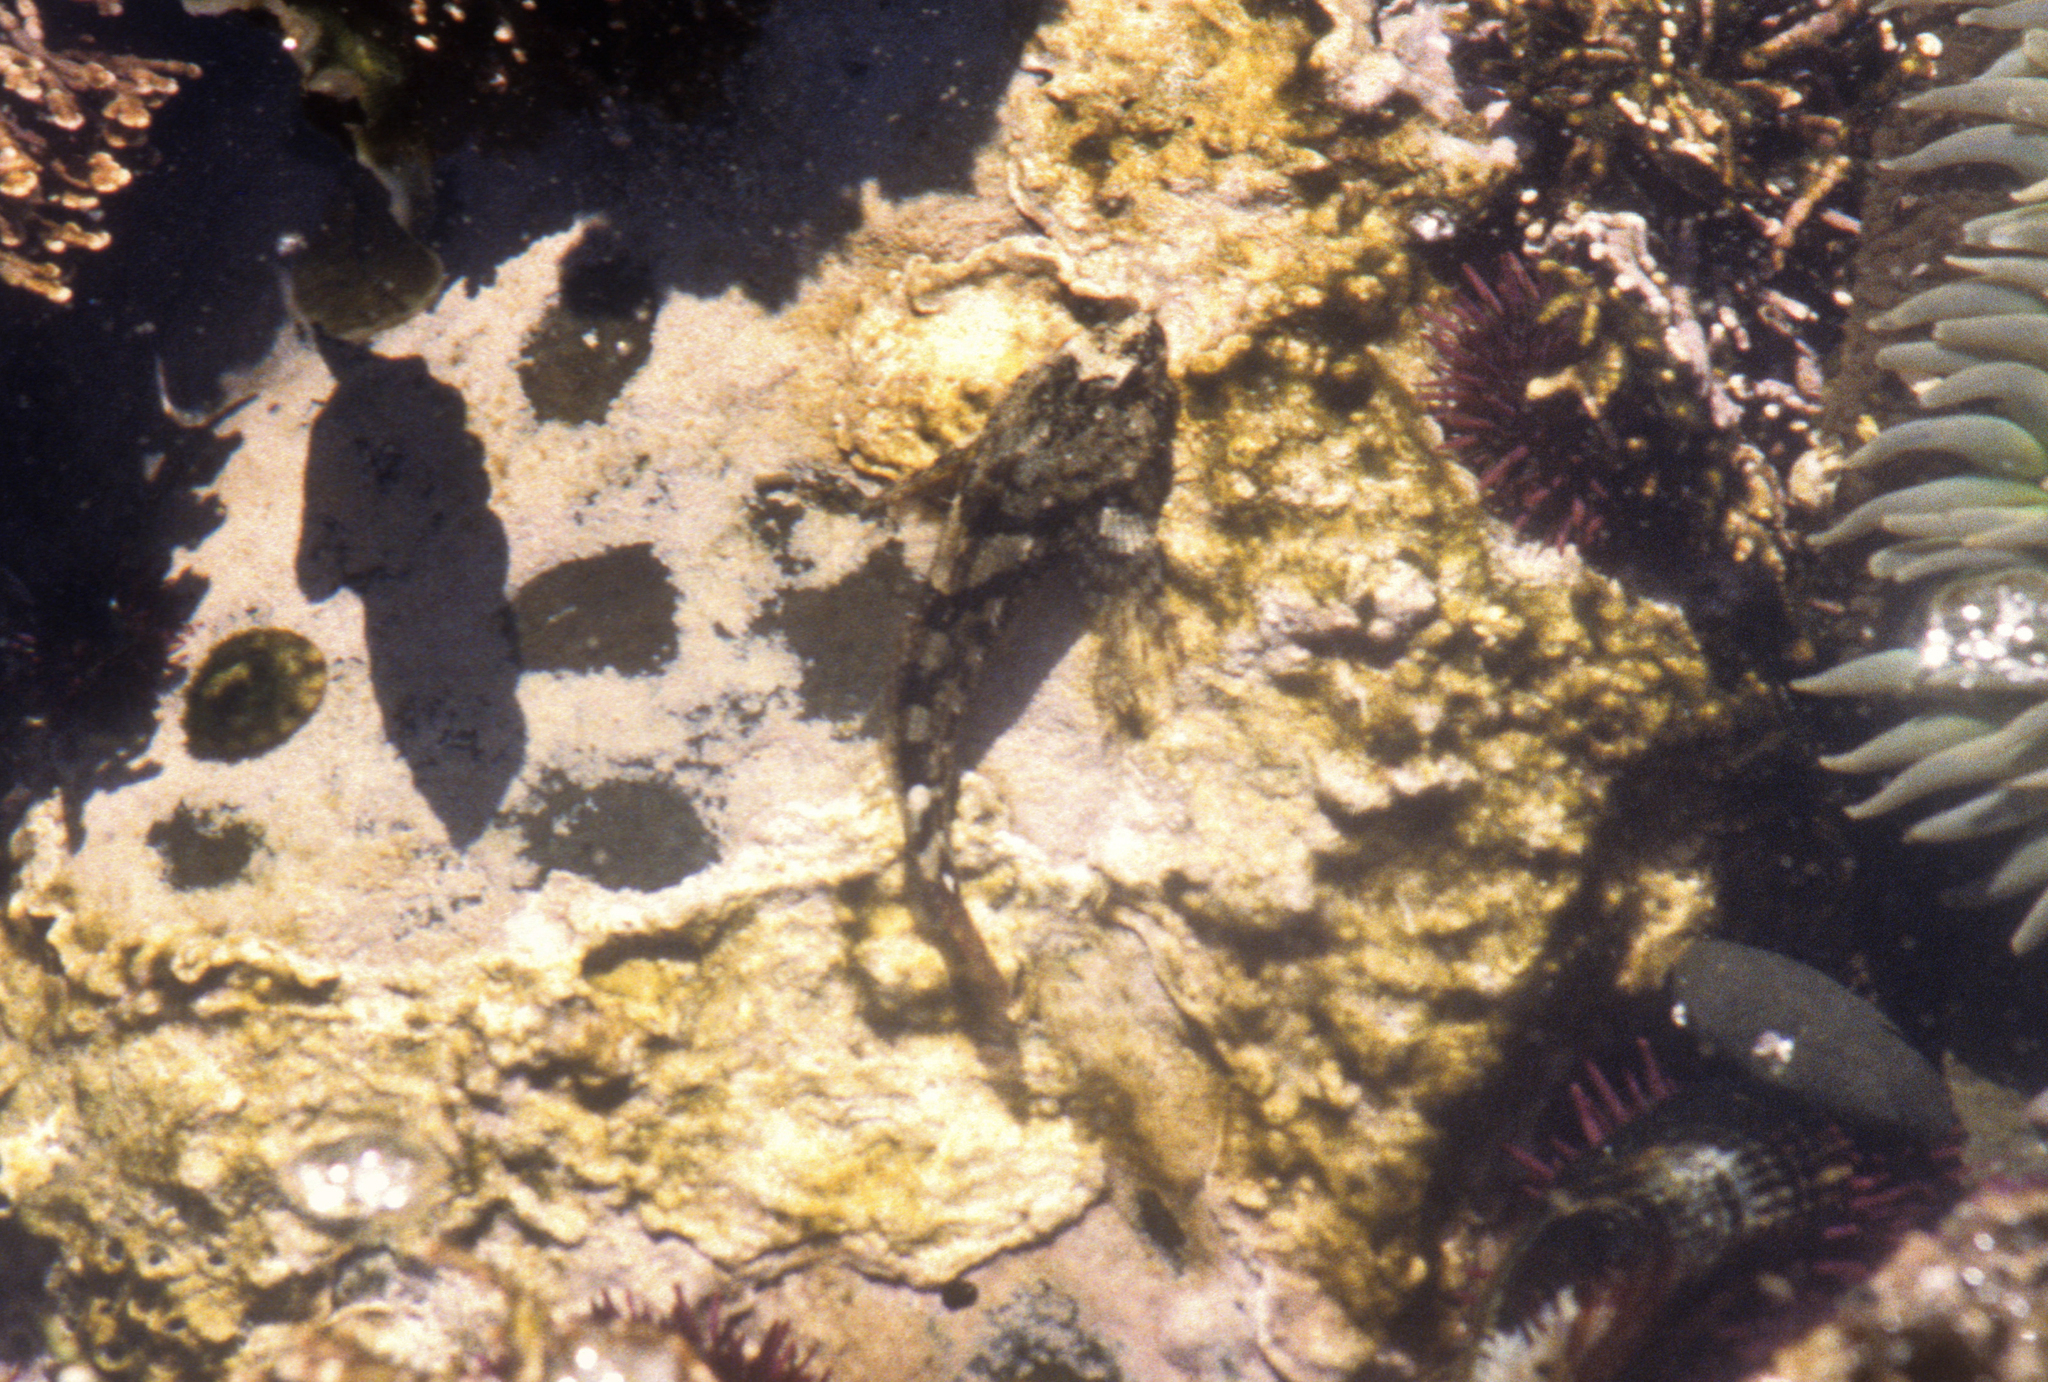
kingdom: Animalia
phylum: Chordata
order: Scorpaeniformes
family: Cottidae
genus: Oligocottus
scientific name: Oligocottus maculosus
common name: Tidepool sculpin
